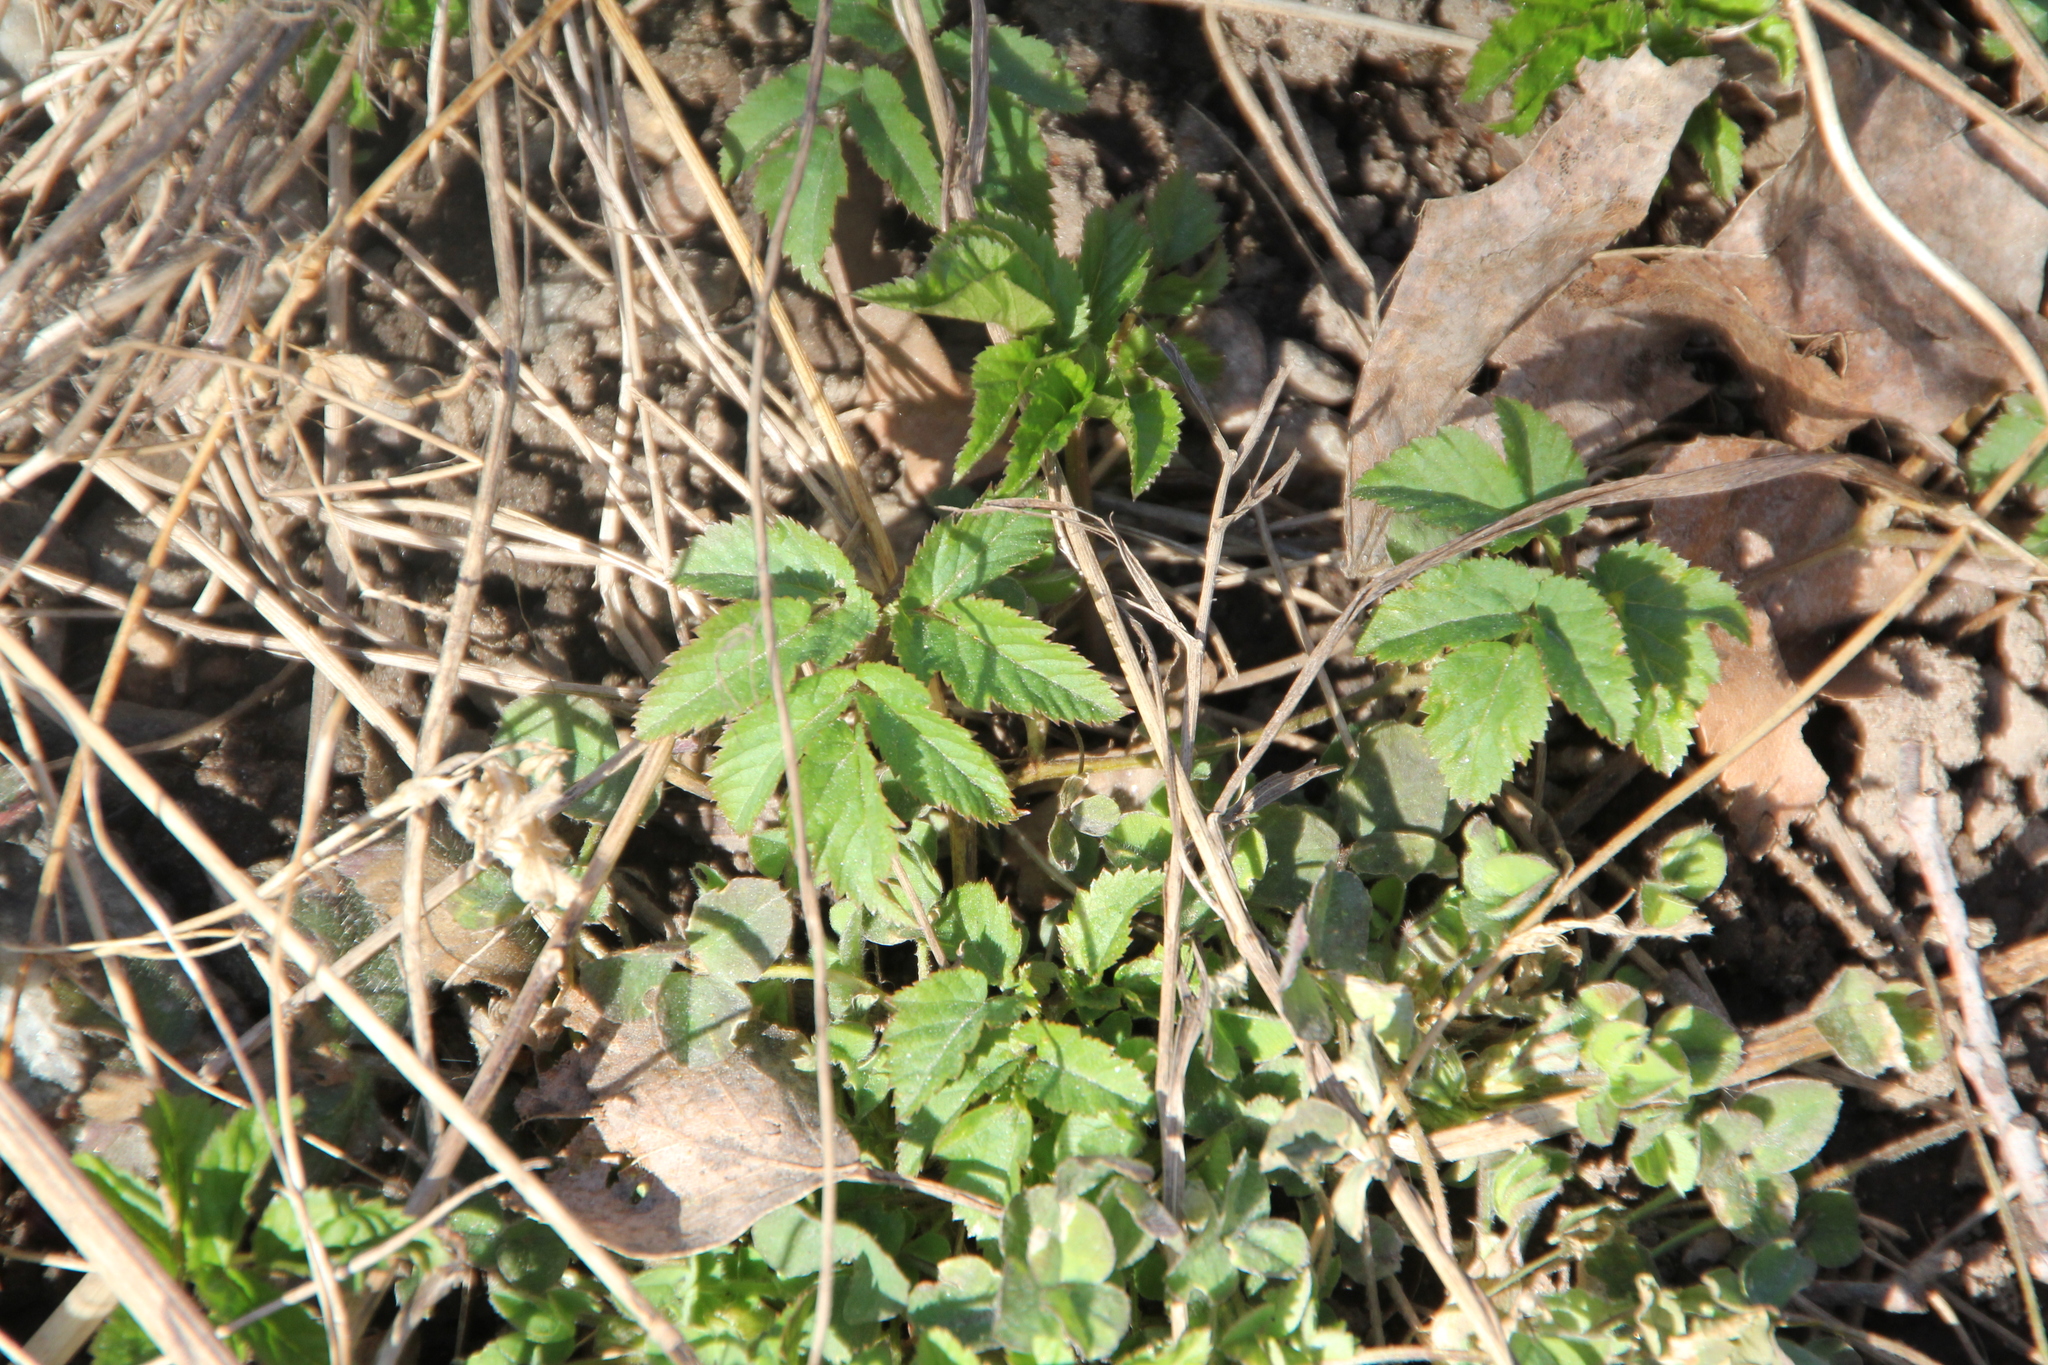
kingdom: Plantae
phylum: Tracheophyta
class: Magnoliopsida
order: Apiales
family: Apiaceae
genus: Aegopodium
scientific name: Aegopodium podagraria
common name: Ground-elder
